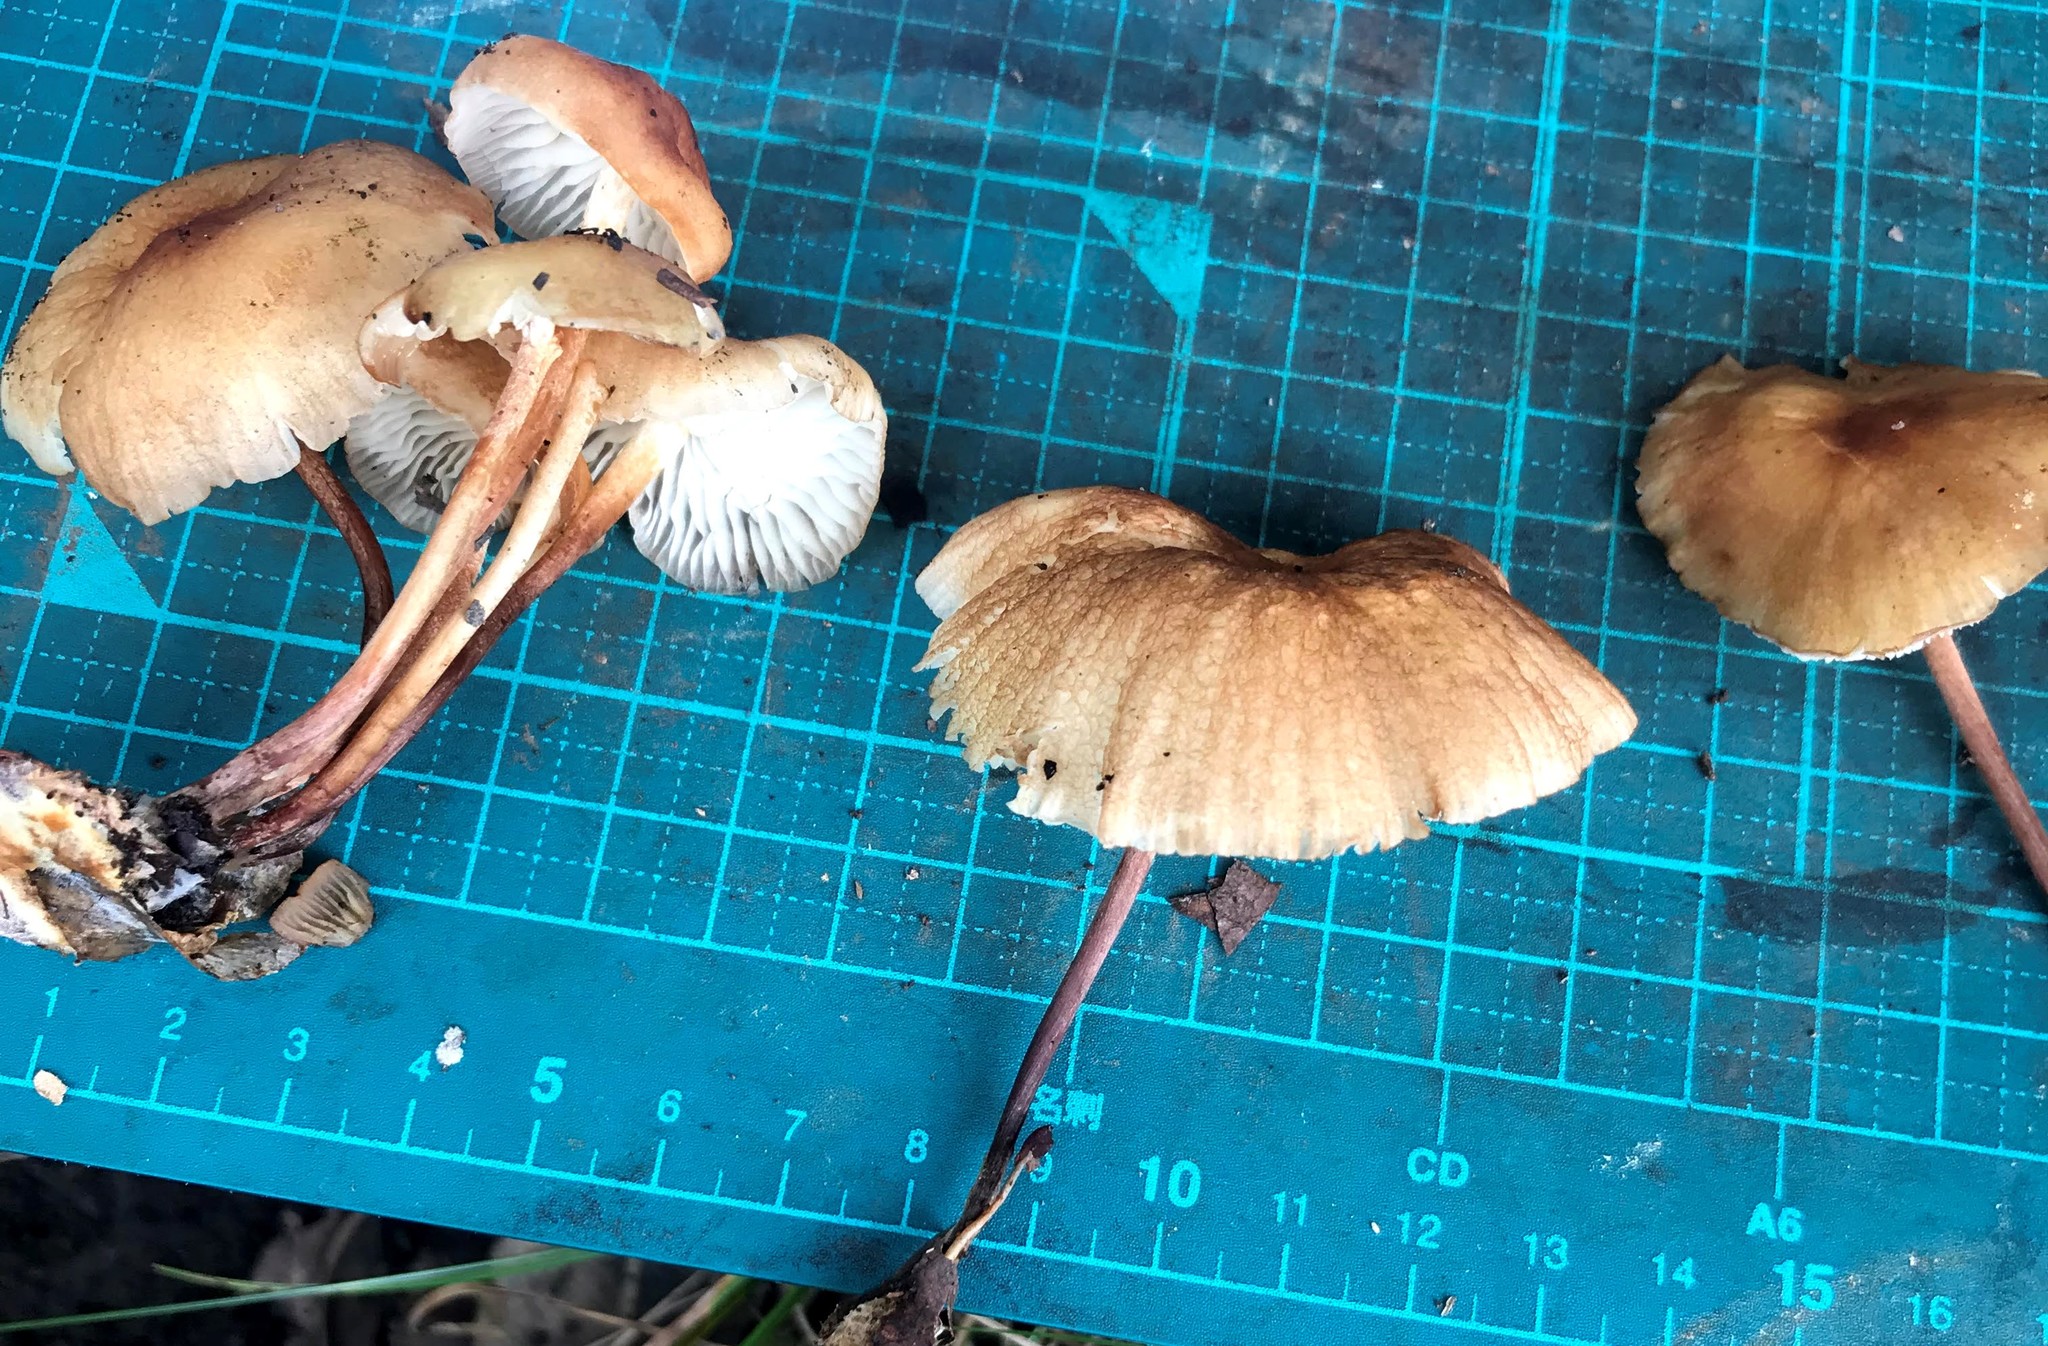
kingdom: Fungi
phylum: Basidiomycota
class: Agaricomycetes
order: Agaricales
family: Marasmiaceae
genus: Marasmius
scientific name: Marasmius maculosus
